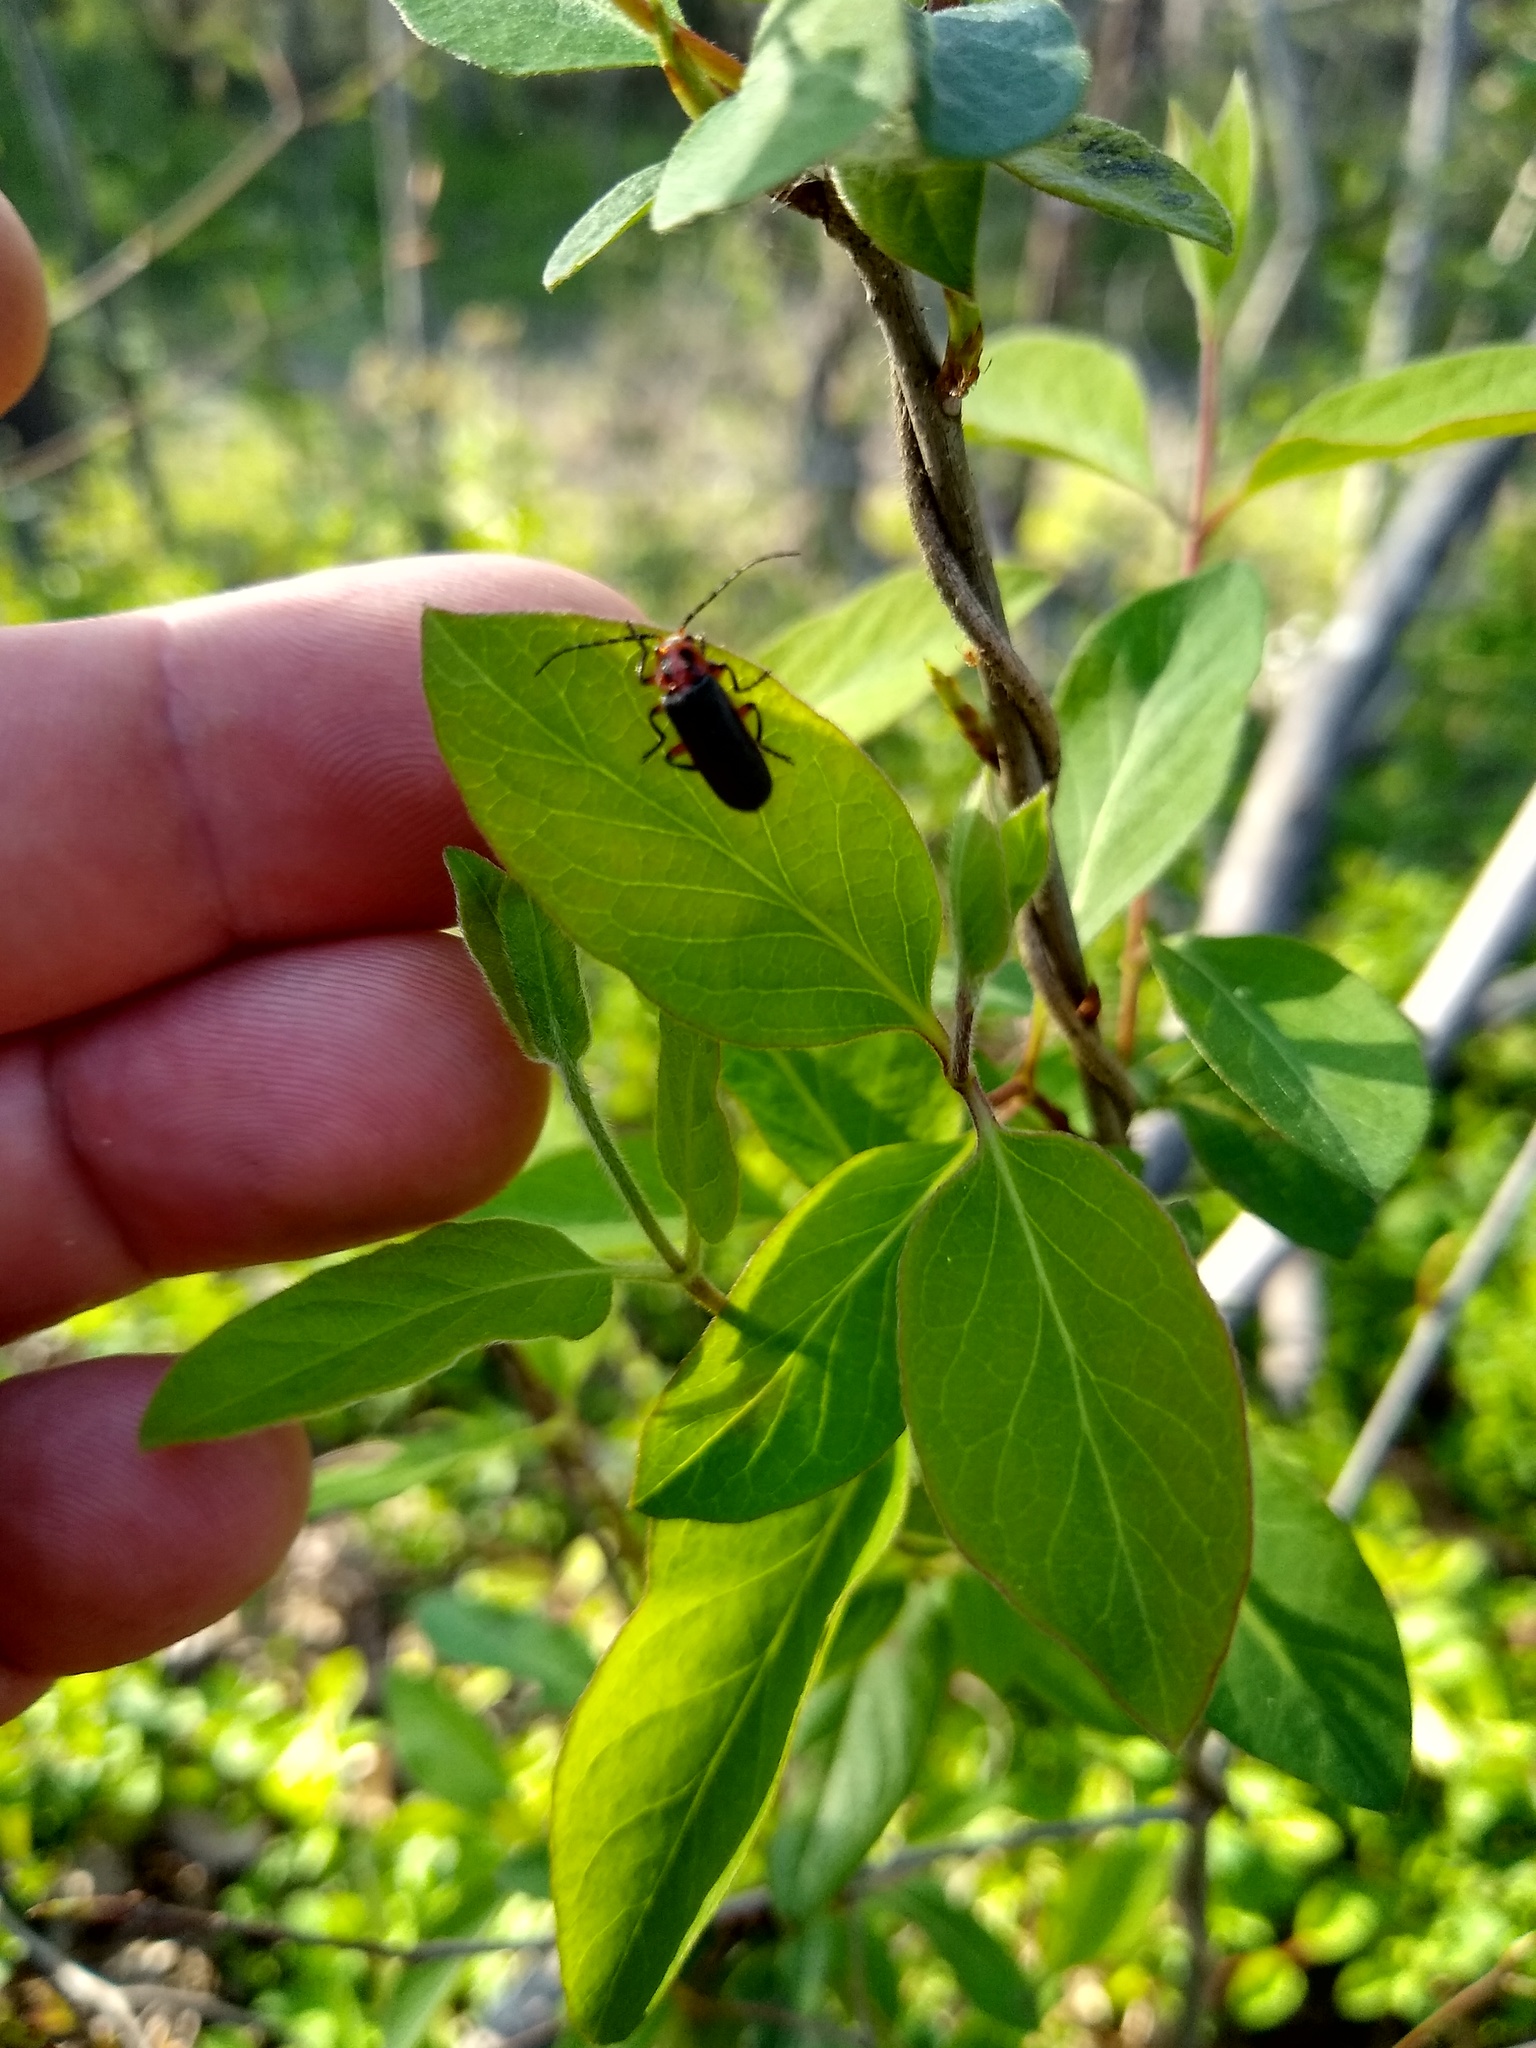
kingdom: Animalia
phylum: Arthropoda
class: Insecta
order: Coleoptera
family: Cantharidae
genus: Atalantycha
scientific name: Atalantycha bilineata
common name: Two-lined leatherwing
